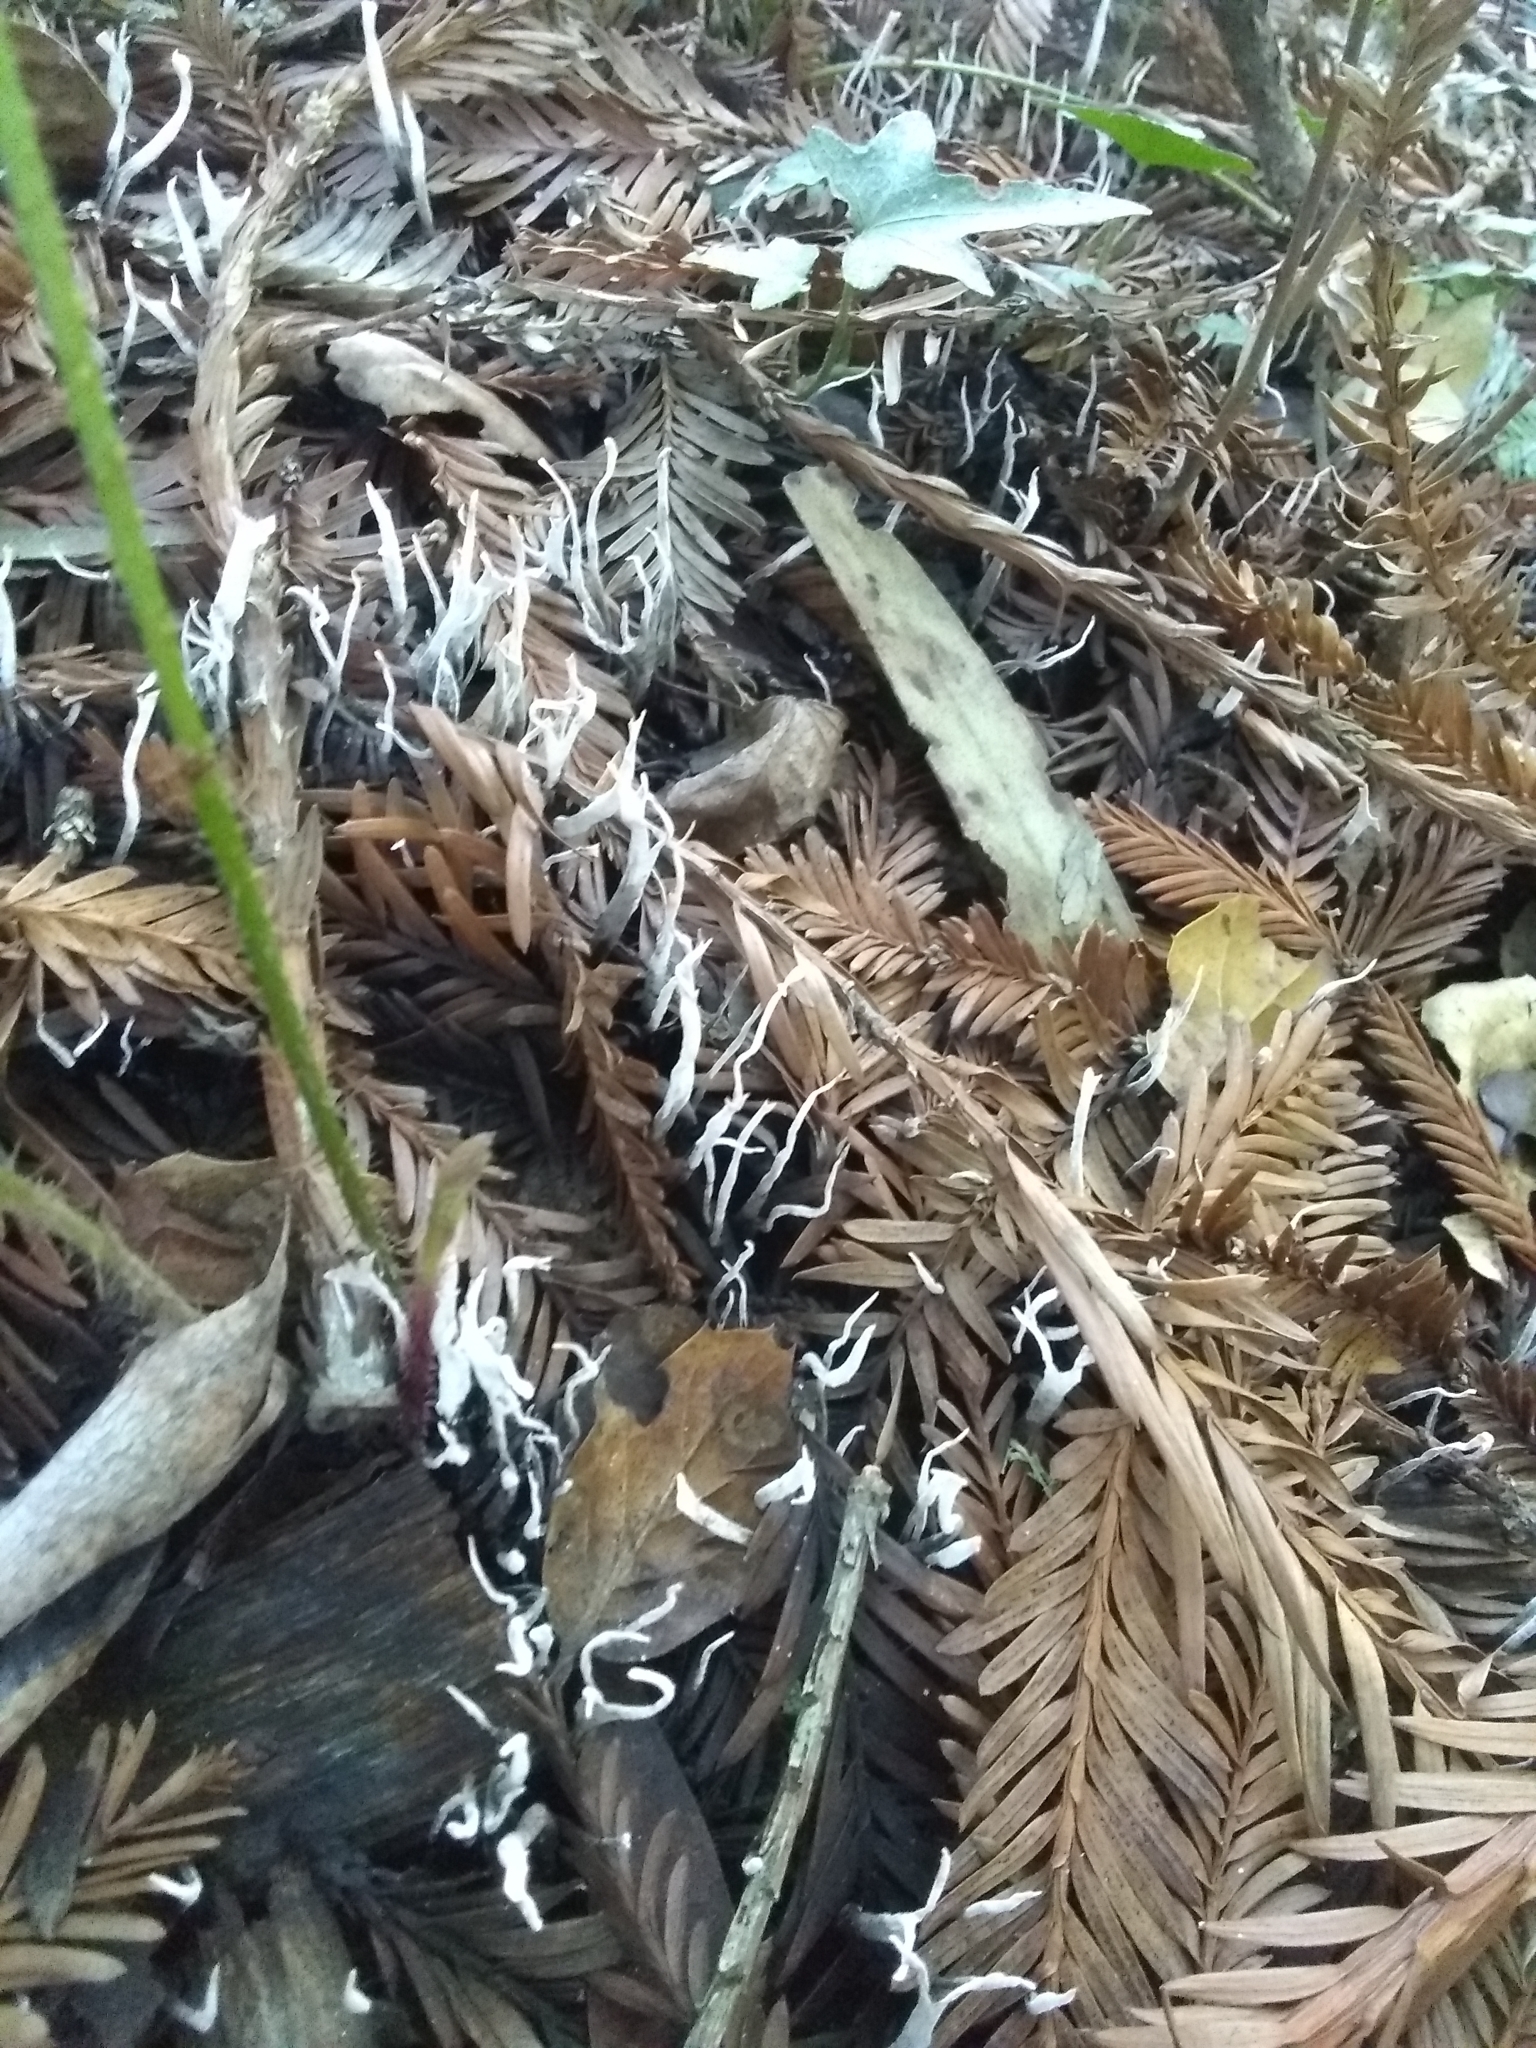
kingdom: Fungi
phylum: Ascomycota
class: Sordariomycetes
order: Xylariales
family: Xylariaceae
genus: Xylaria
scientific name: Xylaria hypoxylon
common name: Candle-snuff fungus
